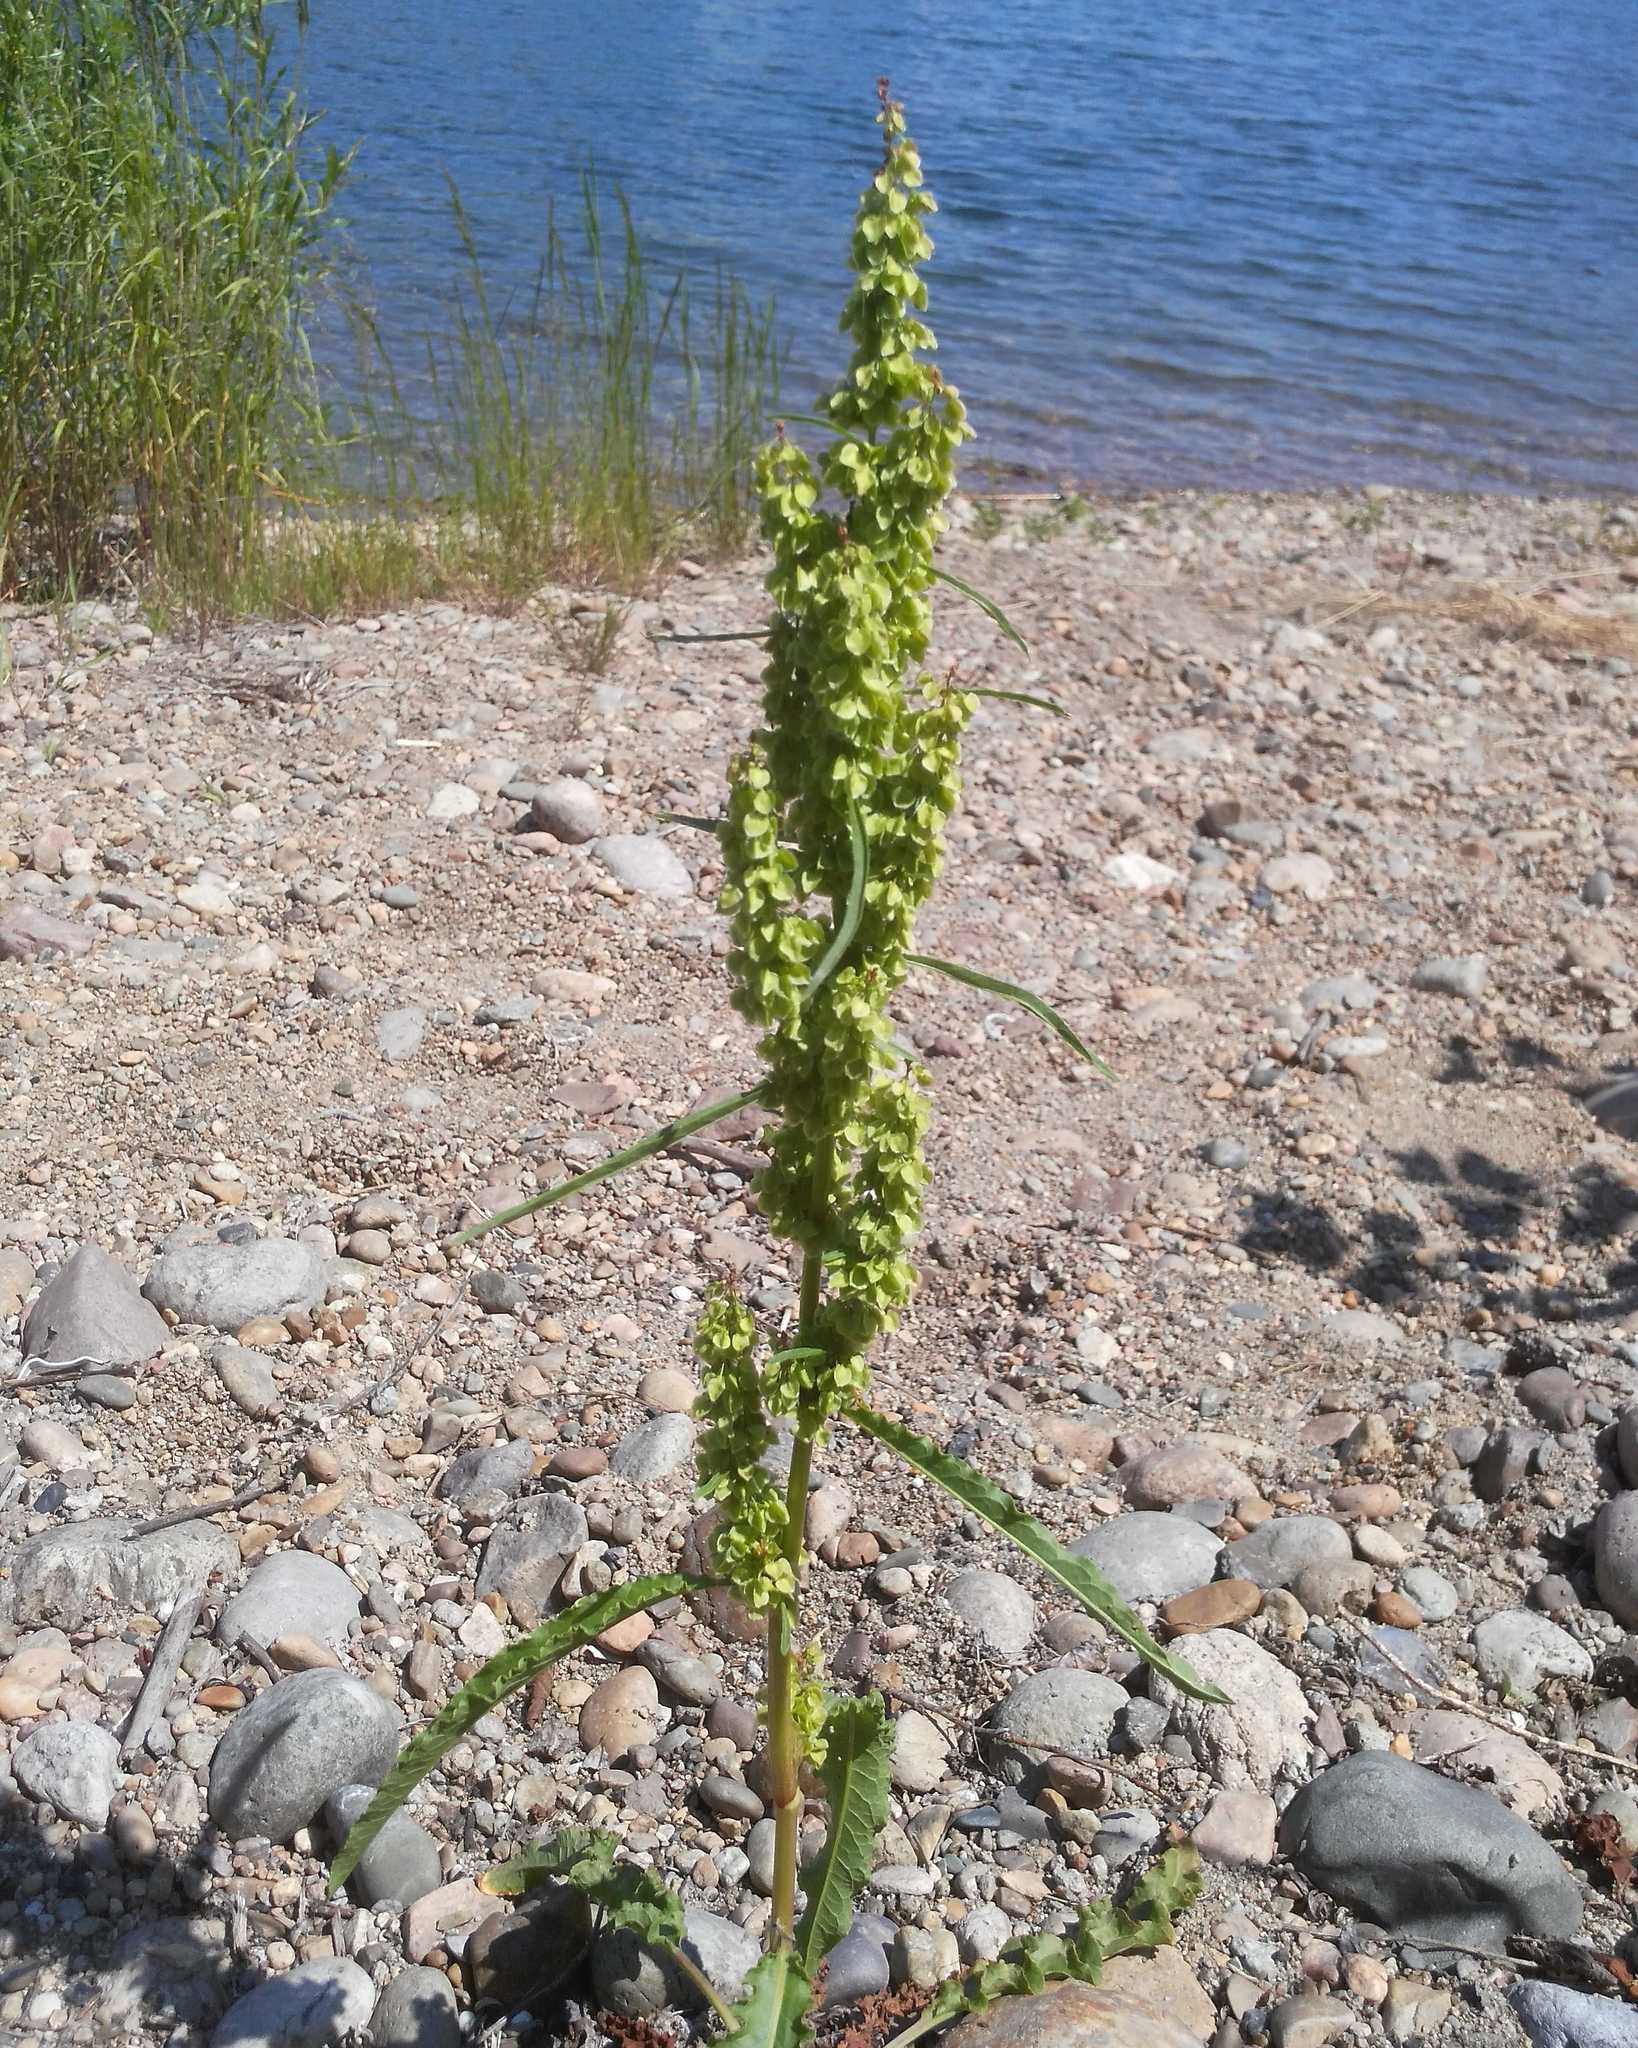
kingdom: Plantae
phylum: Tracheophyta
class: Magnoliopsida
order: Caryophyllales
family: Polygonaceae
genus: Rumex
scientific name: Rumex pseudonatronatus
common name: Field dock
